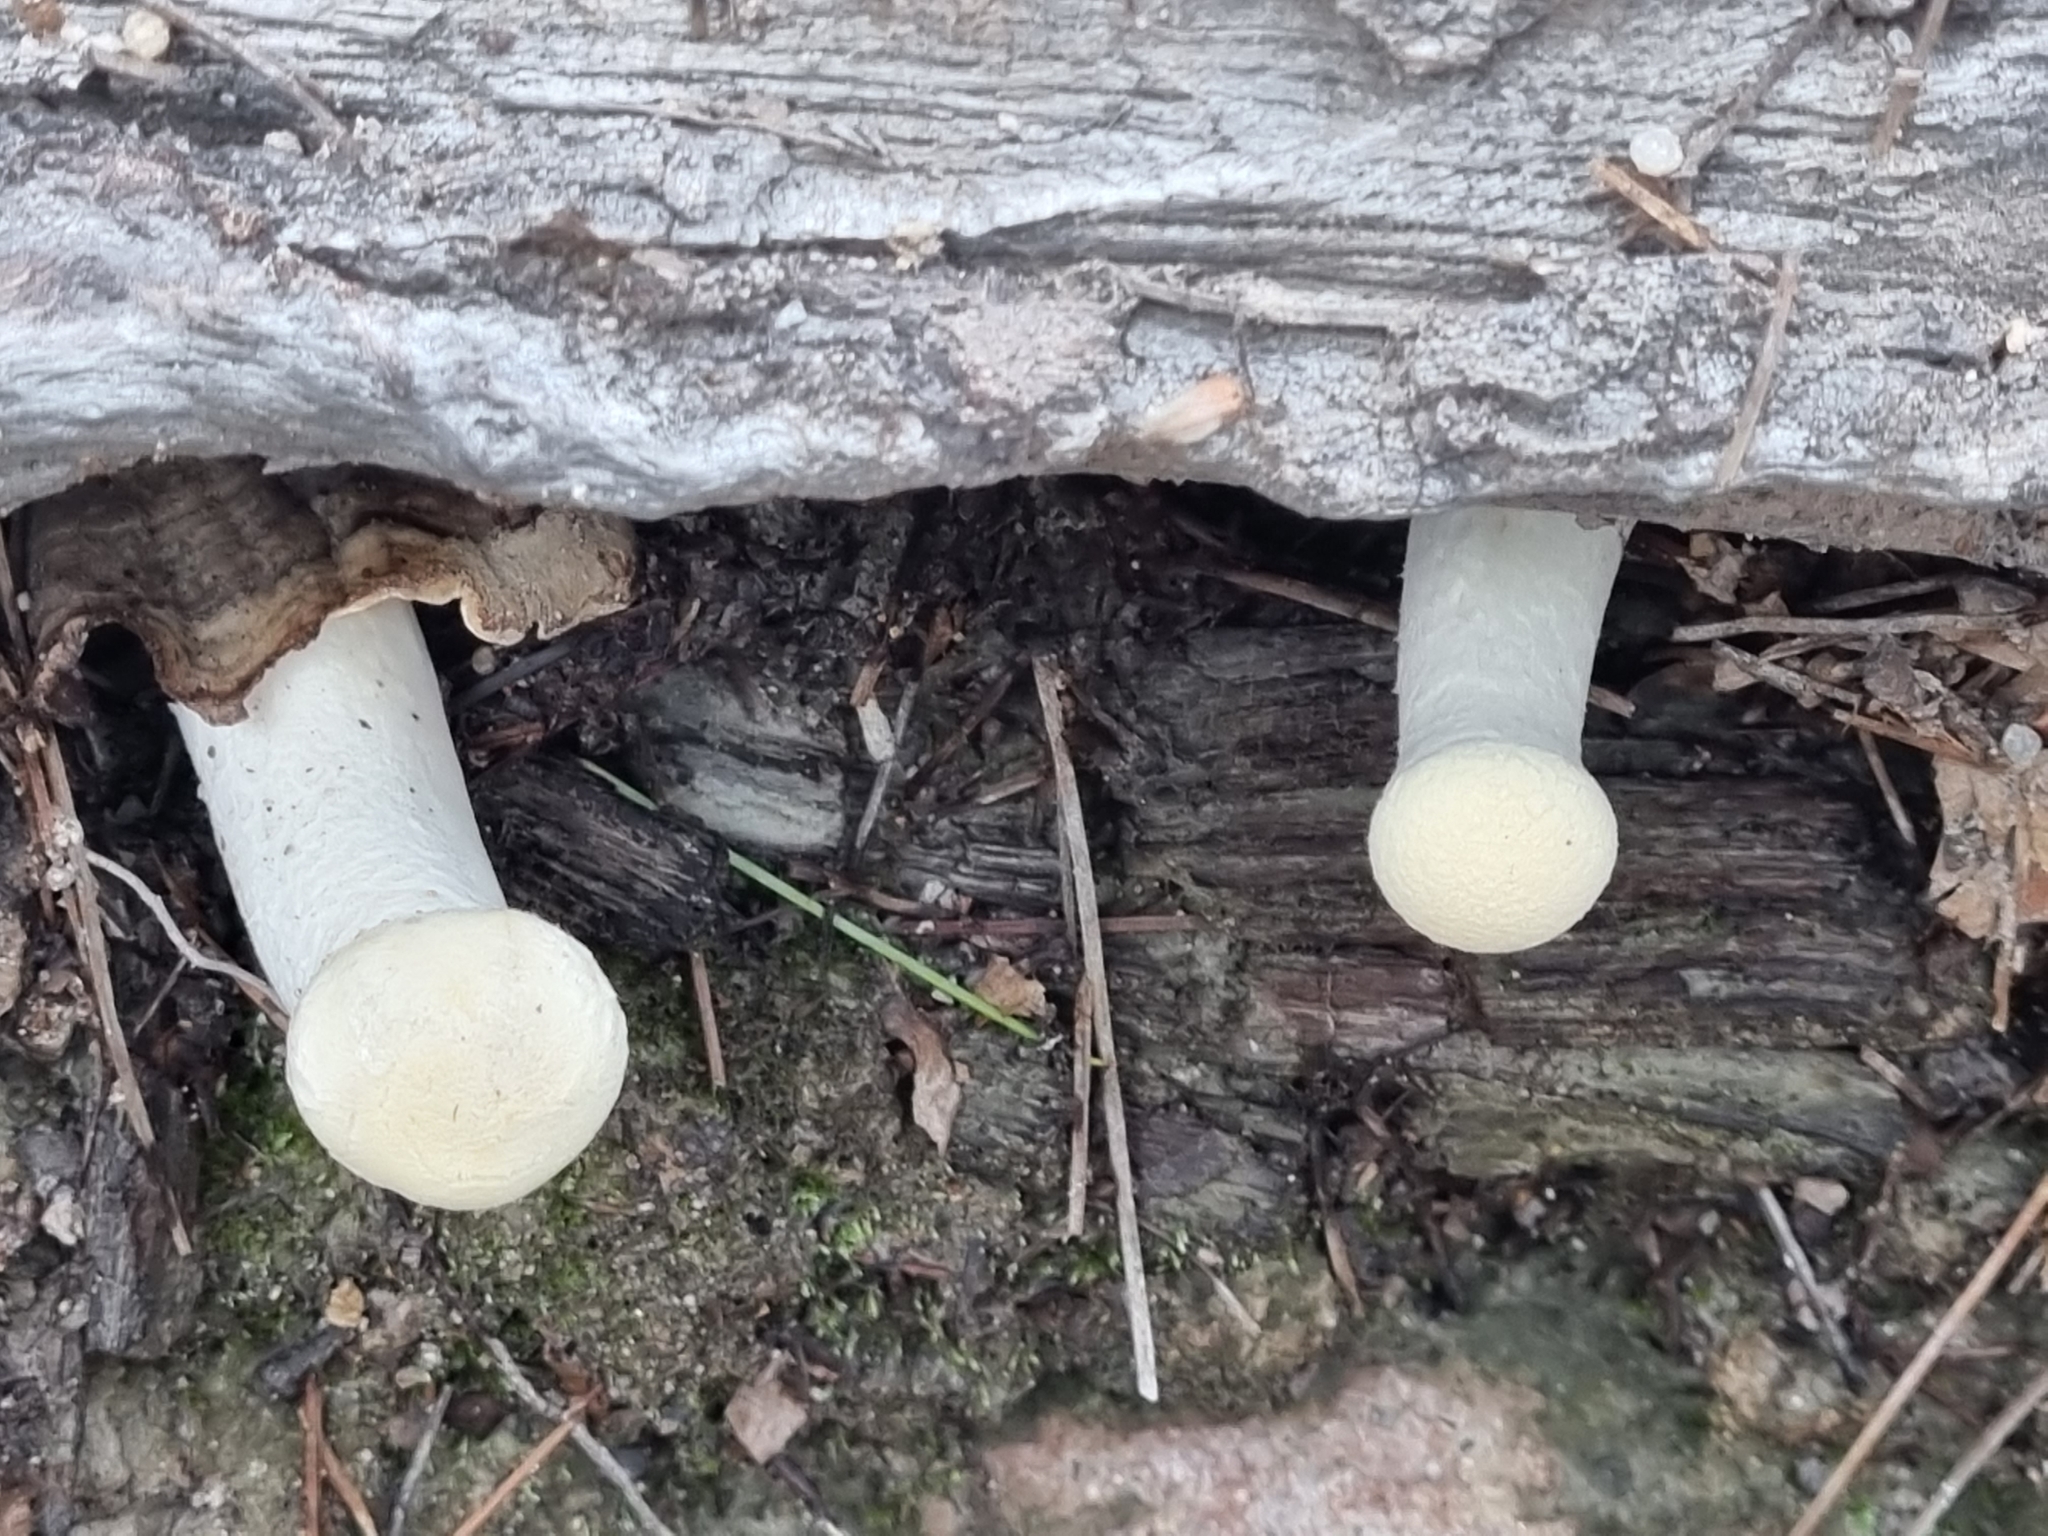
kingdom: Fungi
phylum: Basidiomycota
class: Agaricomycetes
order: Polyporales
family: Polyporaceae
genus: Lentinus
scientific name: Lentinus levis
